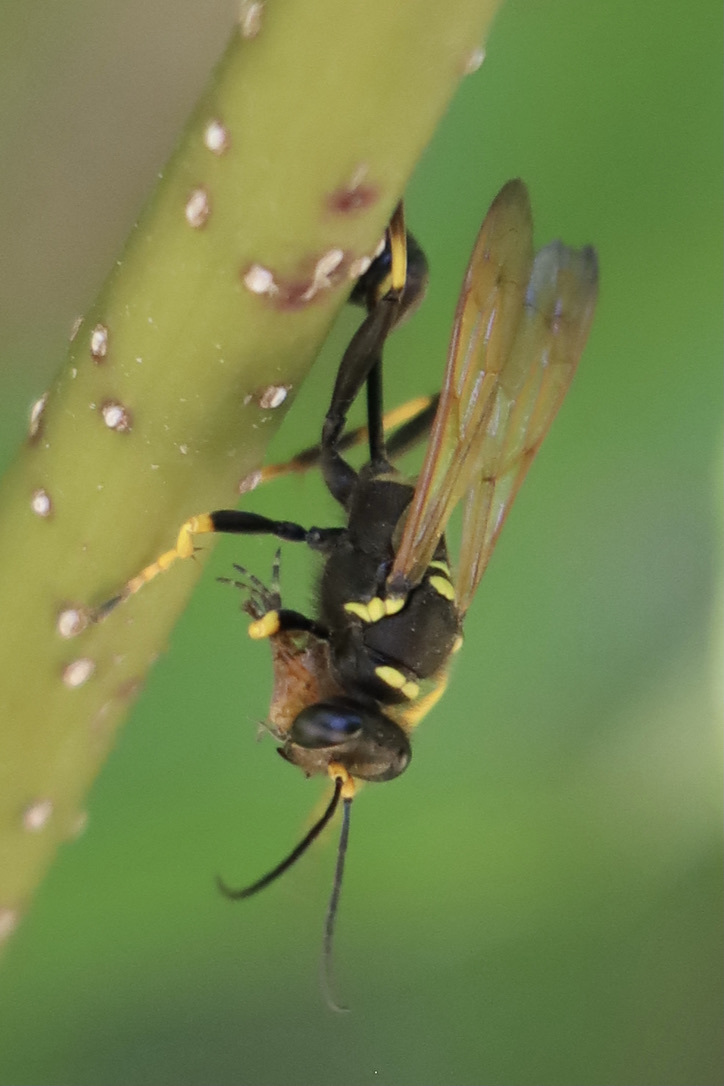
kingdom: Animalia
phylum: Arthropoda
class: Insecta
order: Hymenoptera
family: Sphecidae
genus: Sceliphron
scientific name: Sceliphron caementarium
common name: Mud dauber
